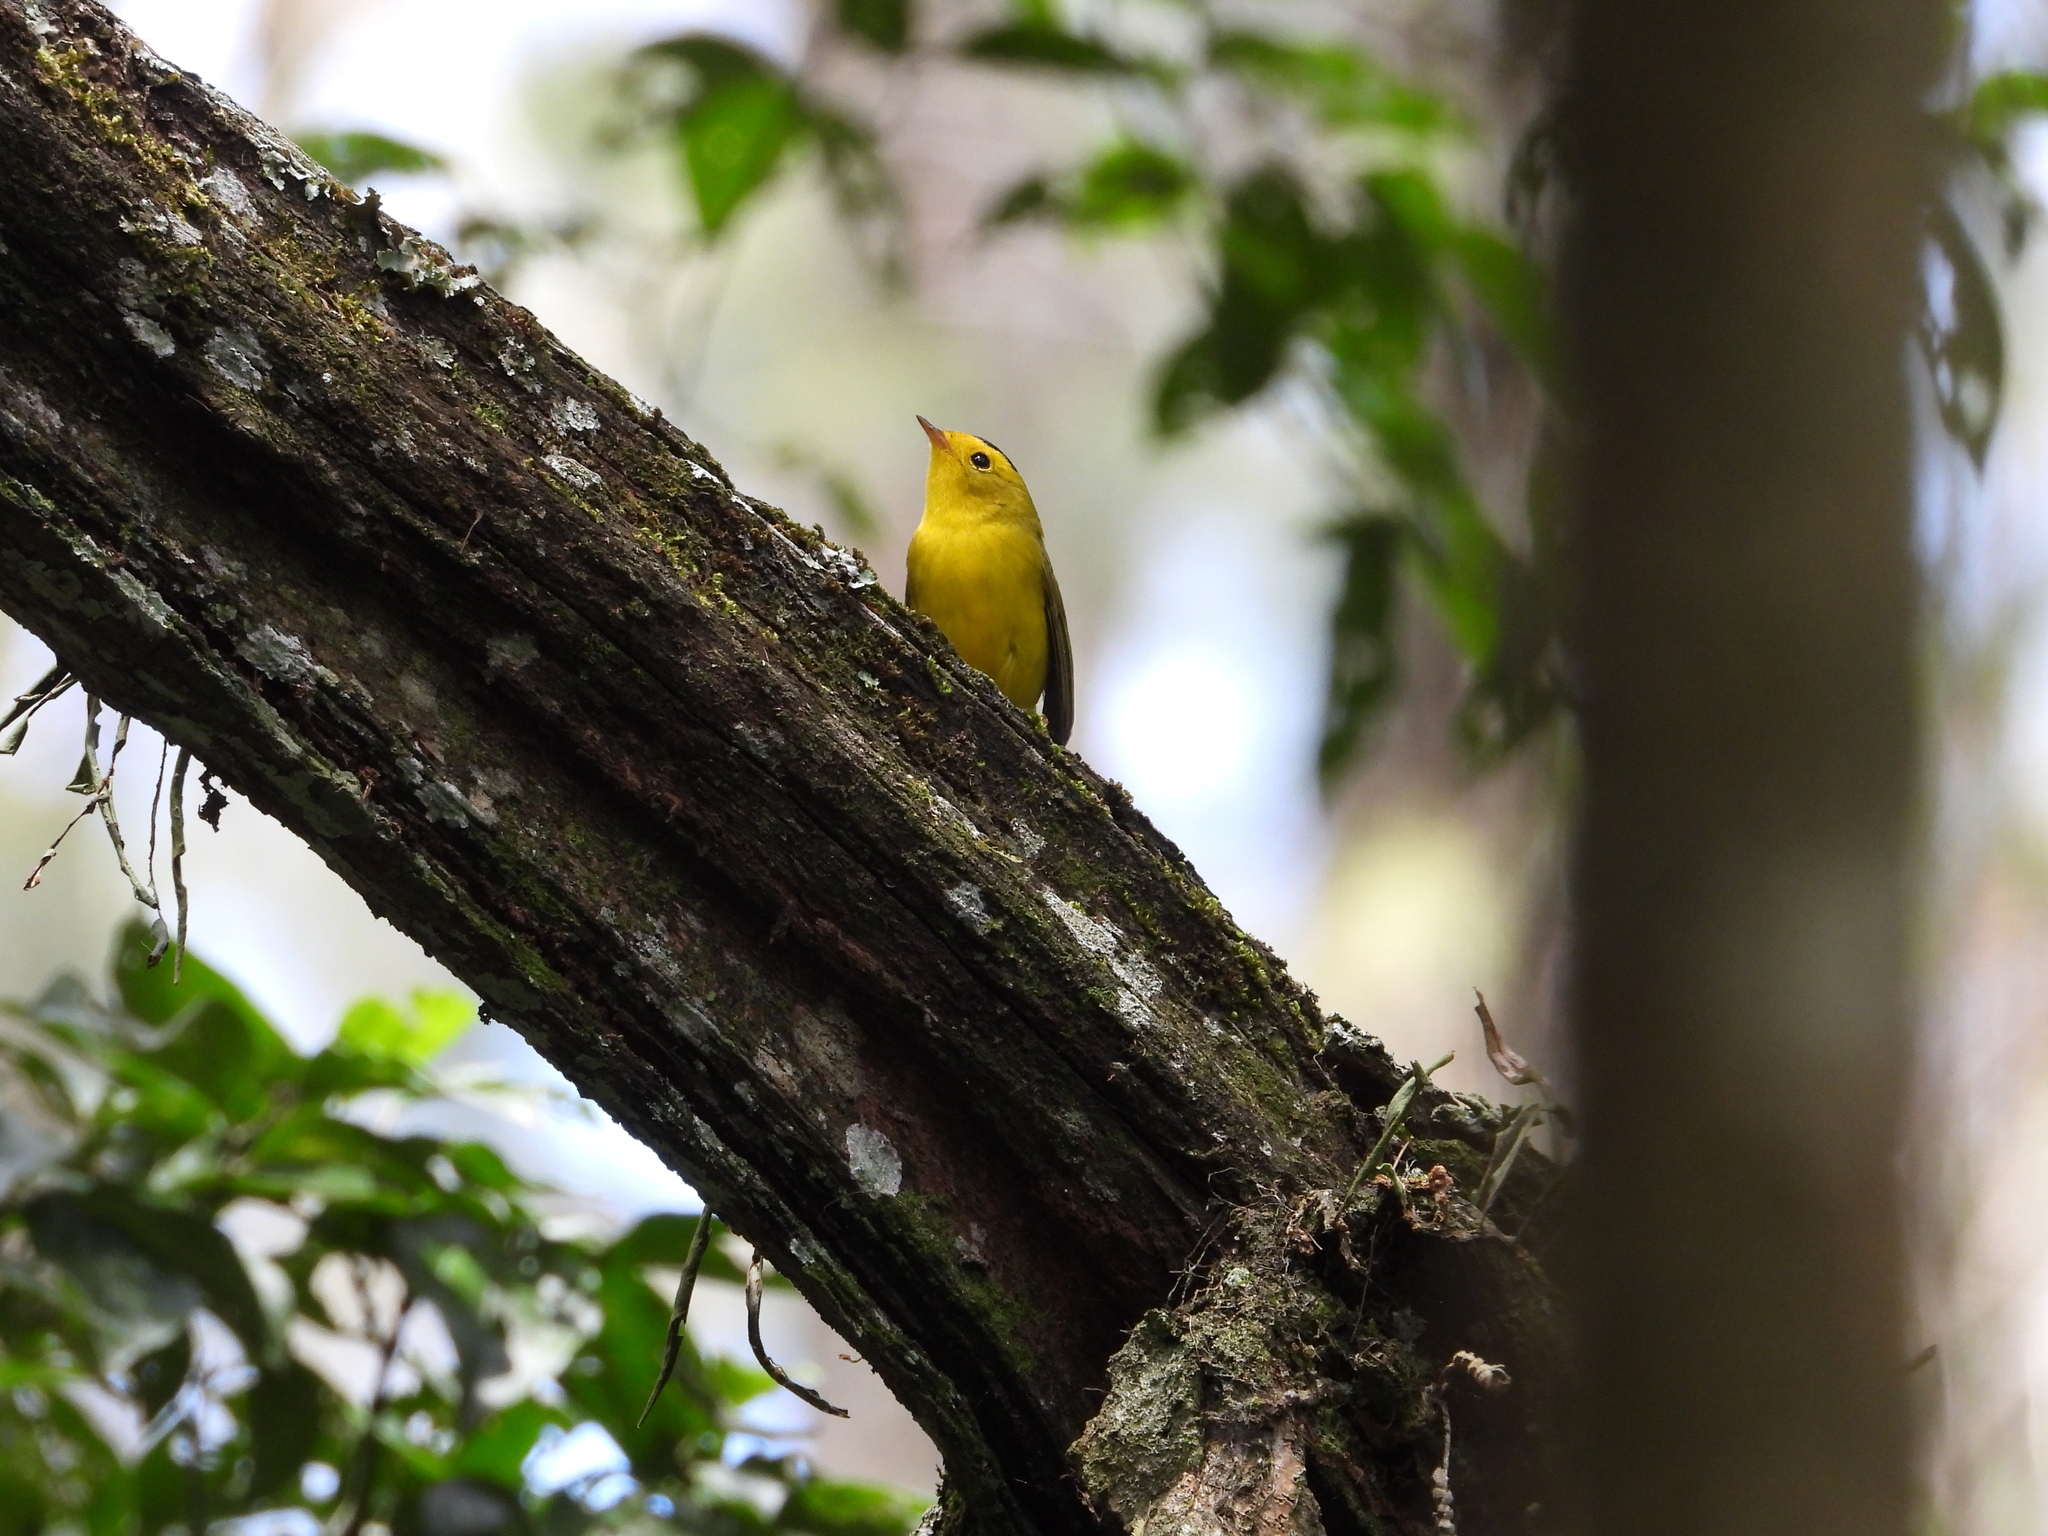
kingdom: Animalia
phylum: Chordata
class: Aves
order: Passeriformes
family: Parulidae
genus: Cardellina
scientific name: Cardellina pusilla
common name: Wilson's warbler
